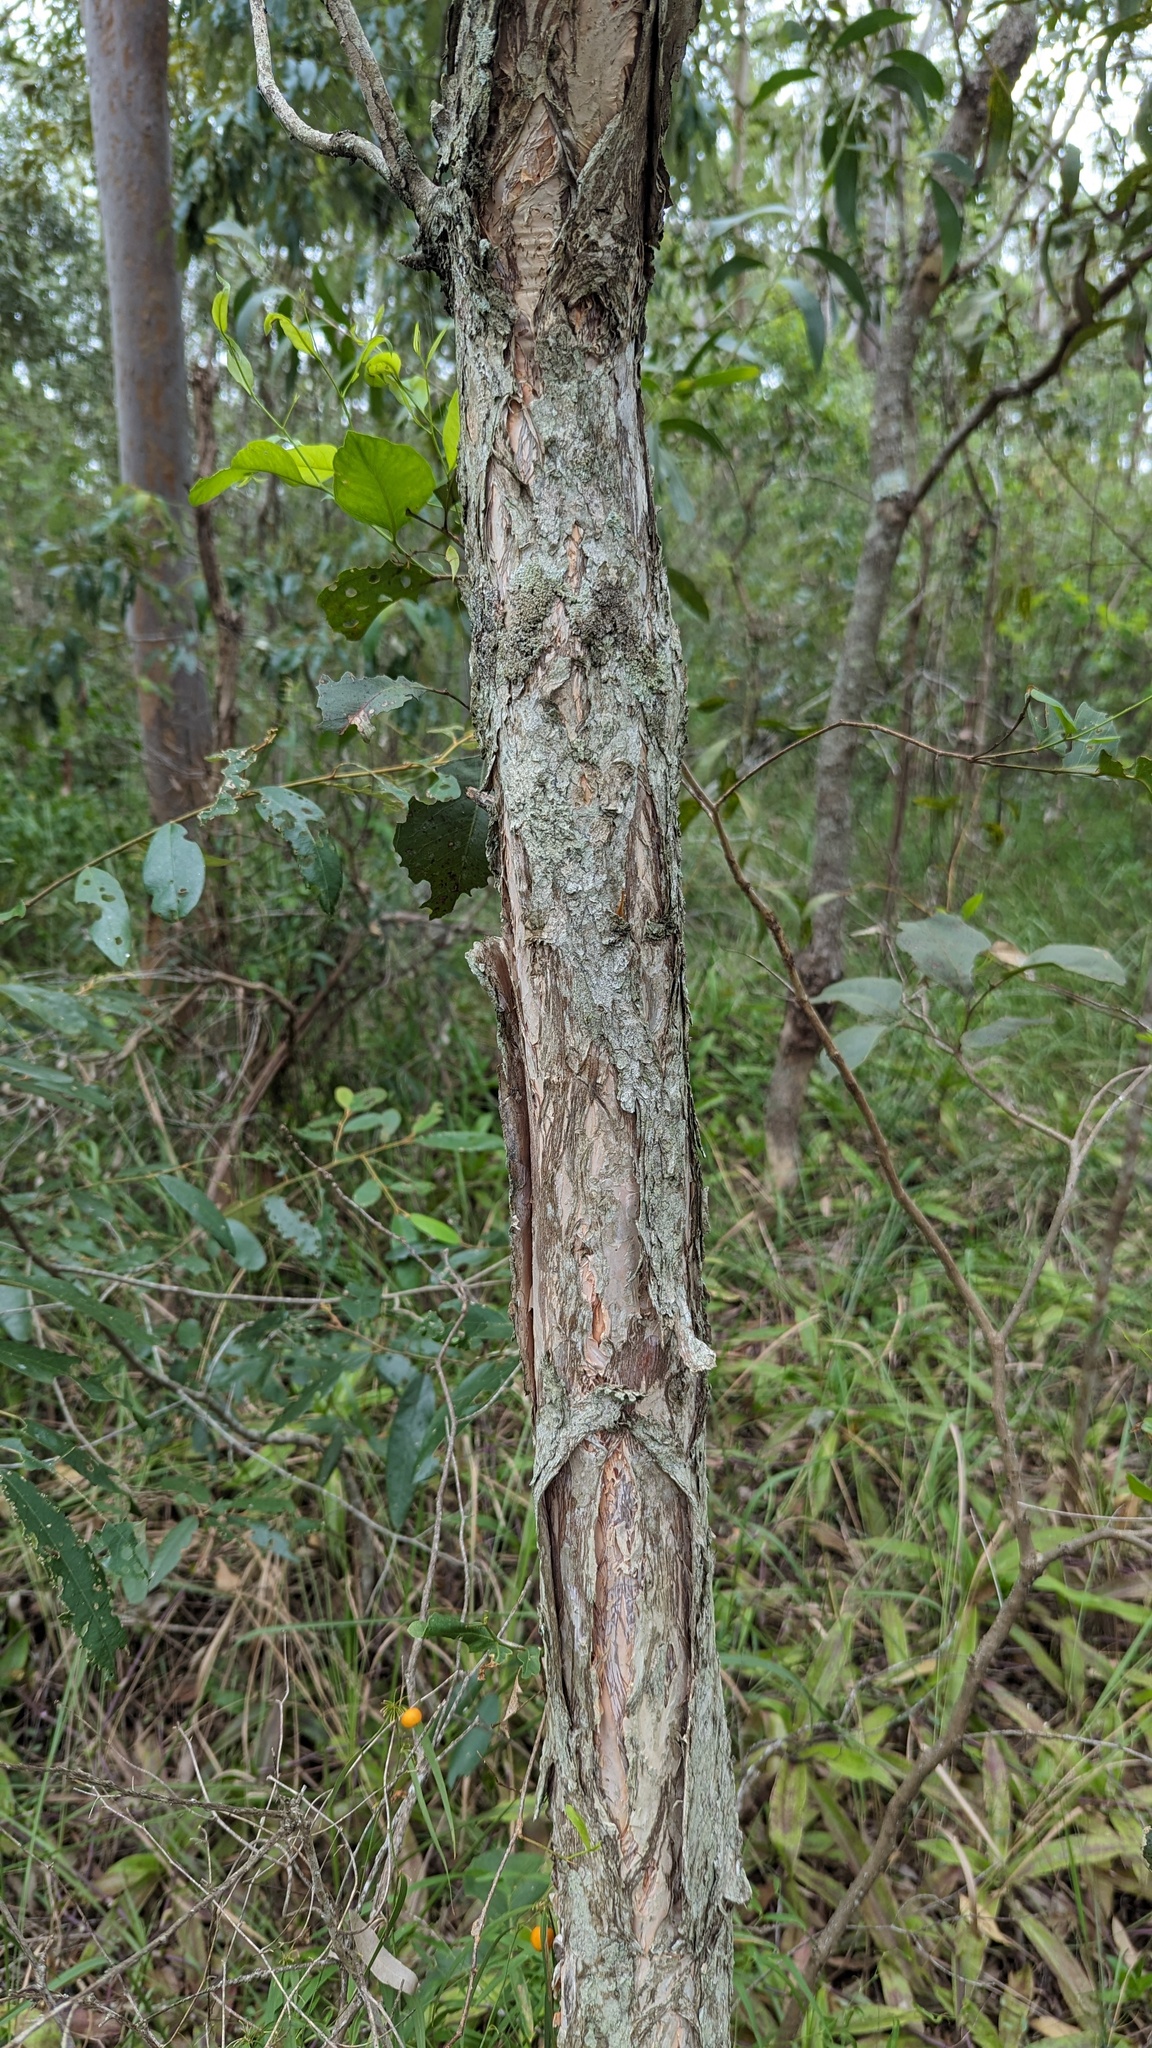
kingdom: Plantae
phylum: Tracheophyta
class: Magnoliopsida
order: Myrtales
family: Myrtaceae
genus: Callistemon
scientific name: Callistemon salignus
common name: White bottlebrush
